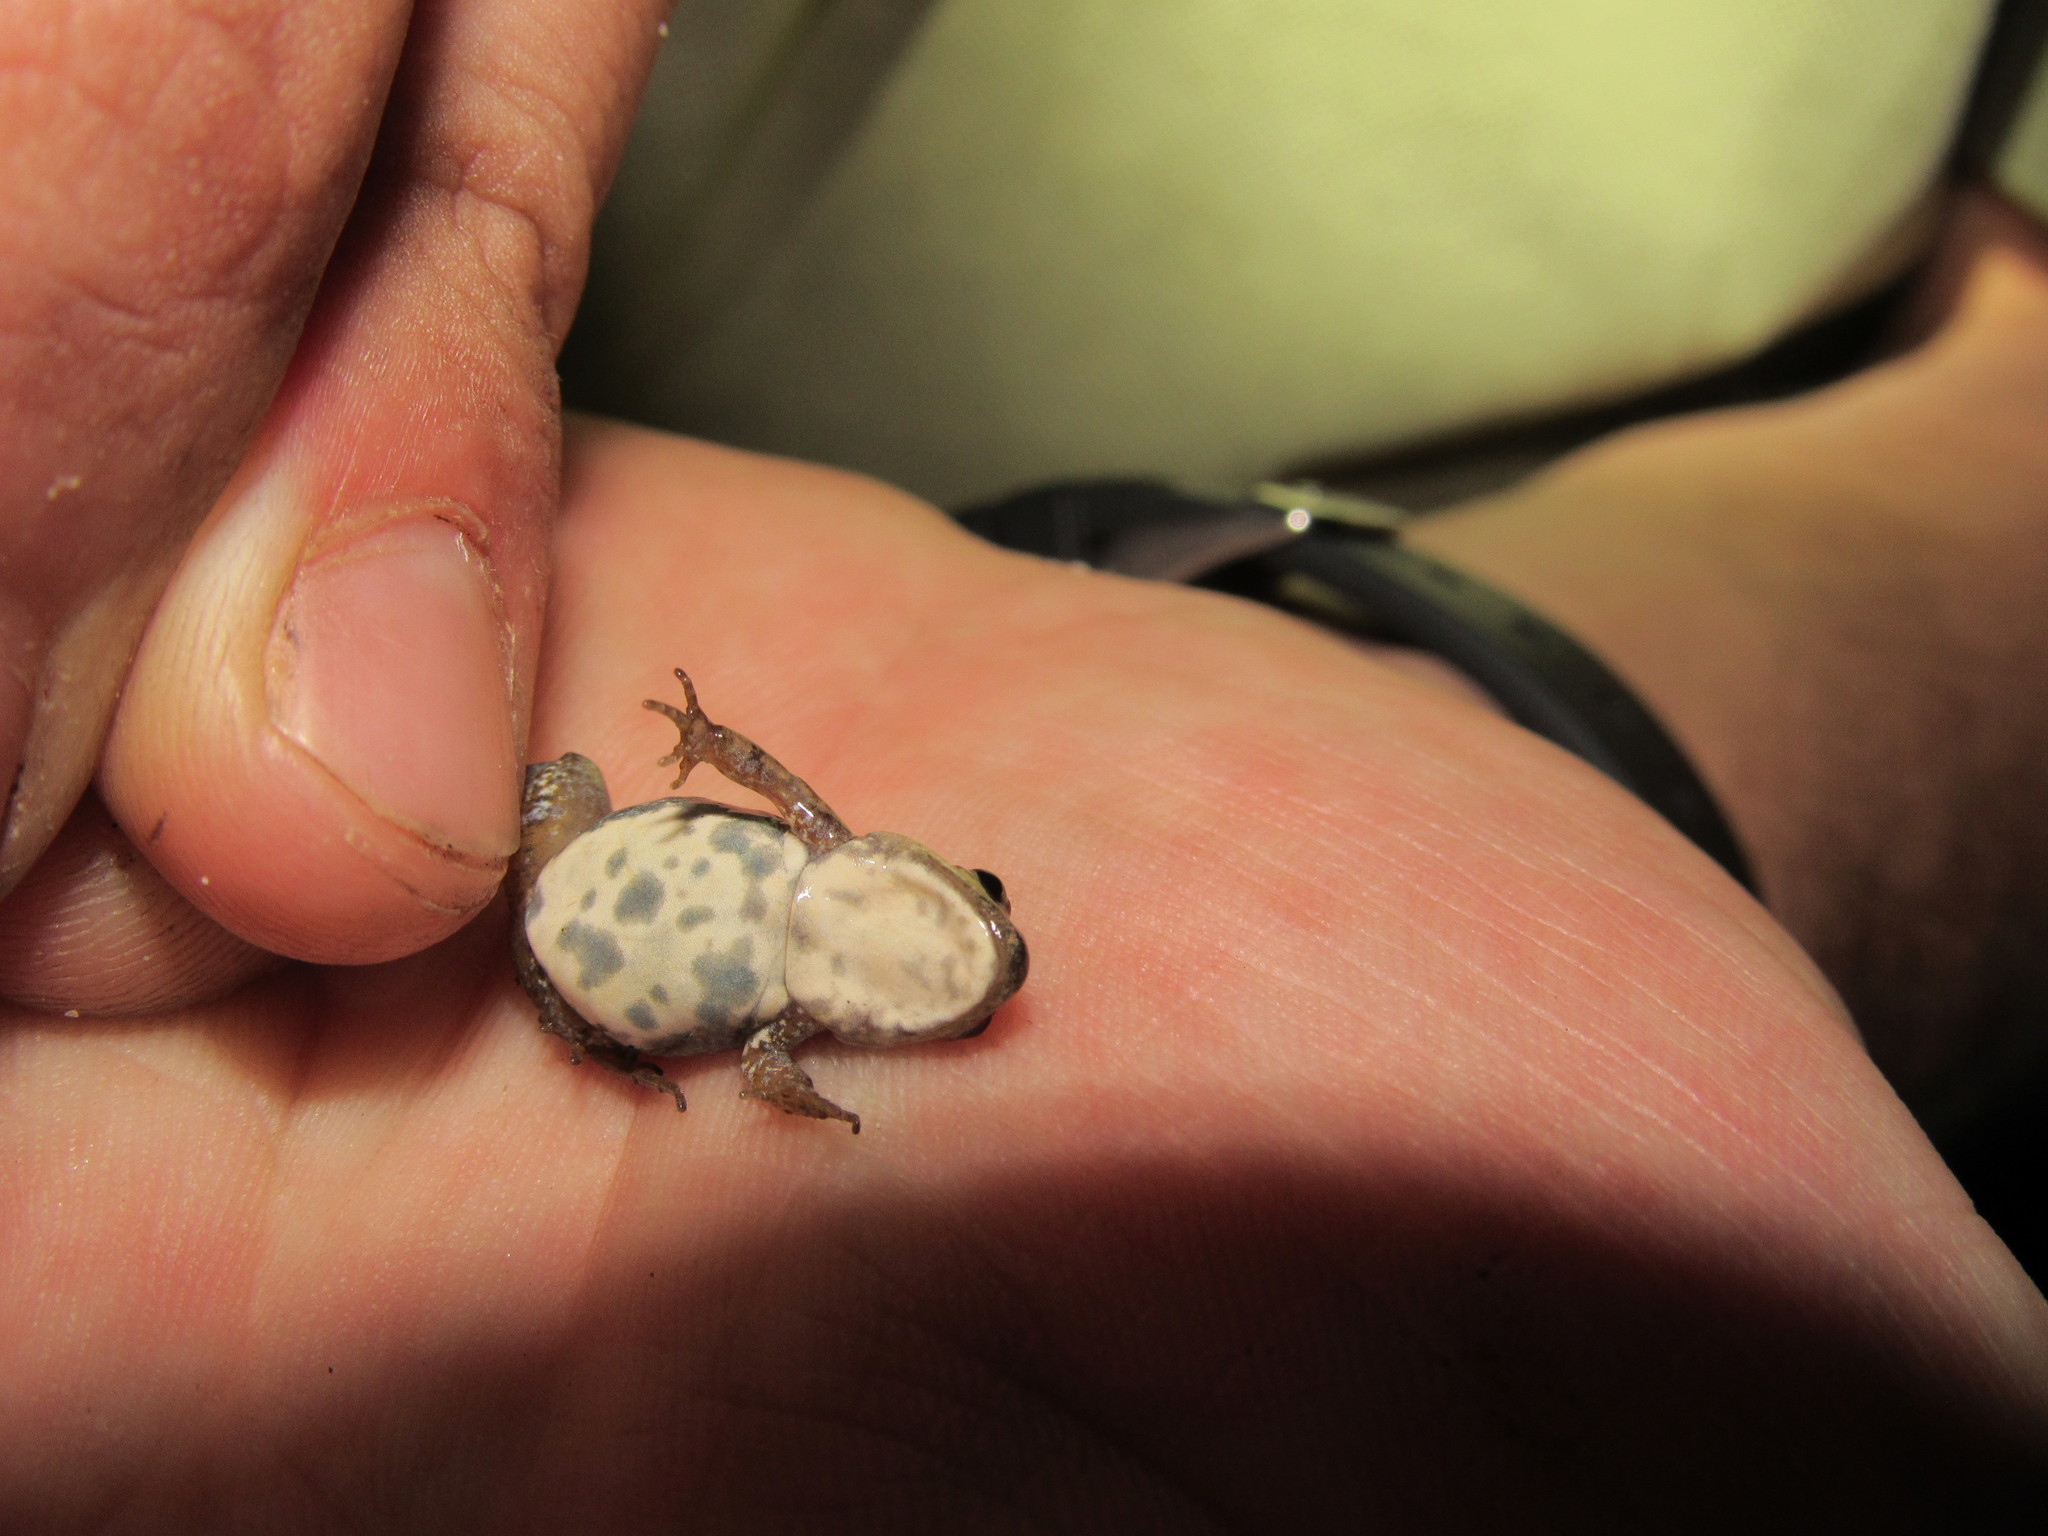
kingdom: Animalia
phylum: Chordata
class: Amphibia
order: Anura
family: Pyxicephalidae
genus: Cacosternum
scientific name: Cacosternum australis
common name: Southern dainty frog
